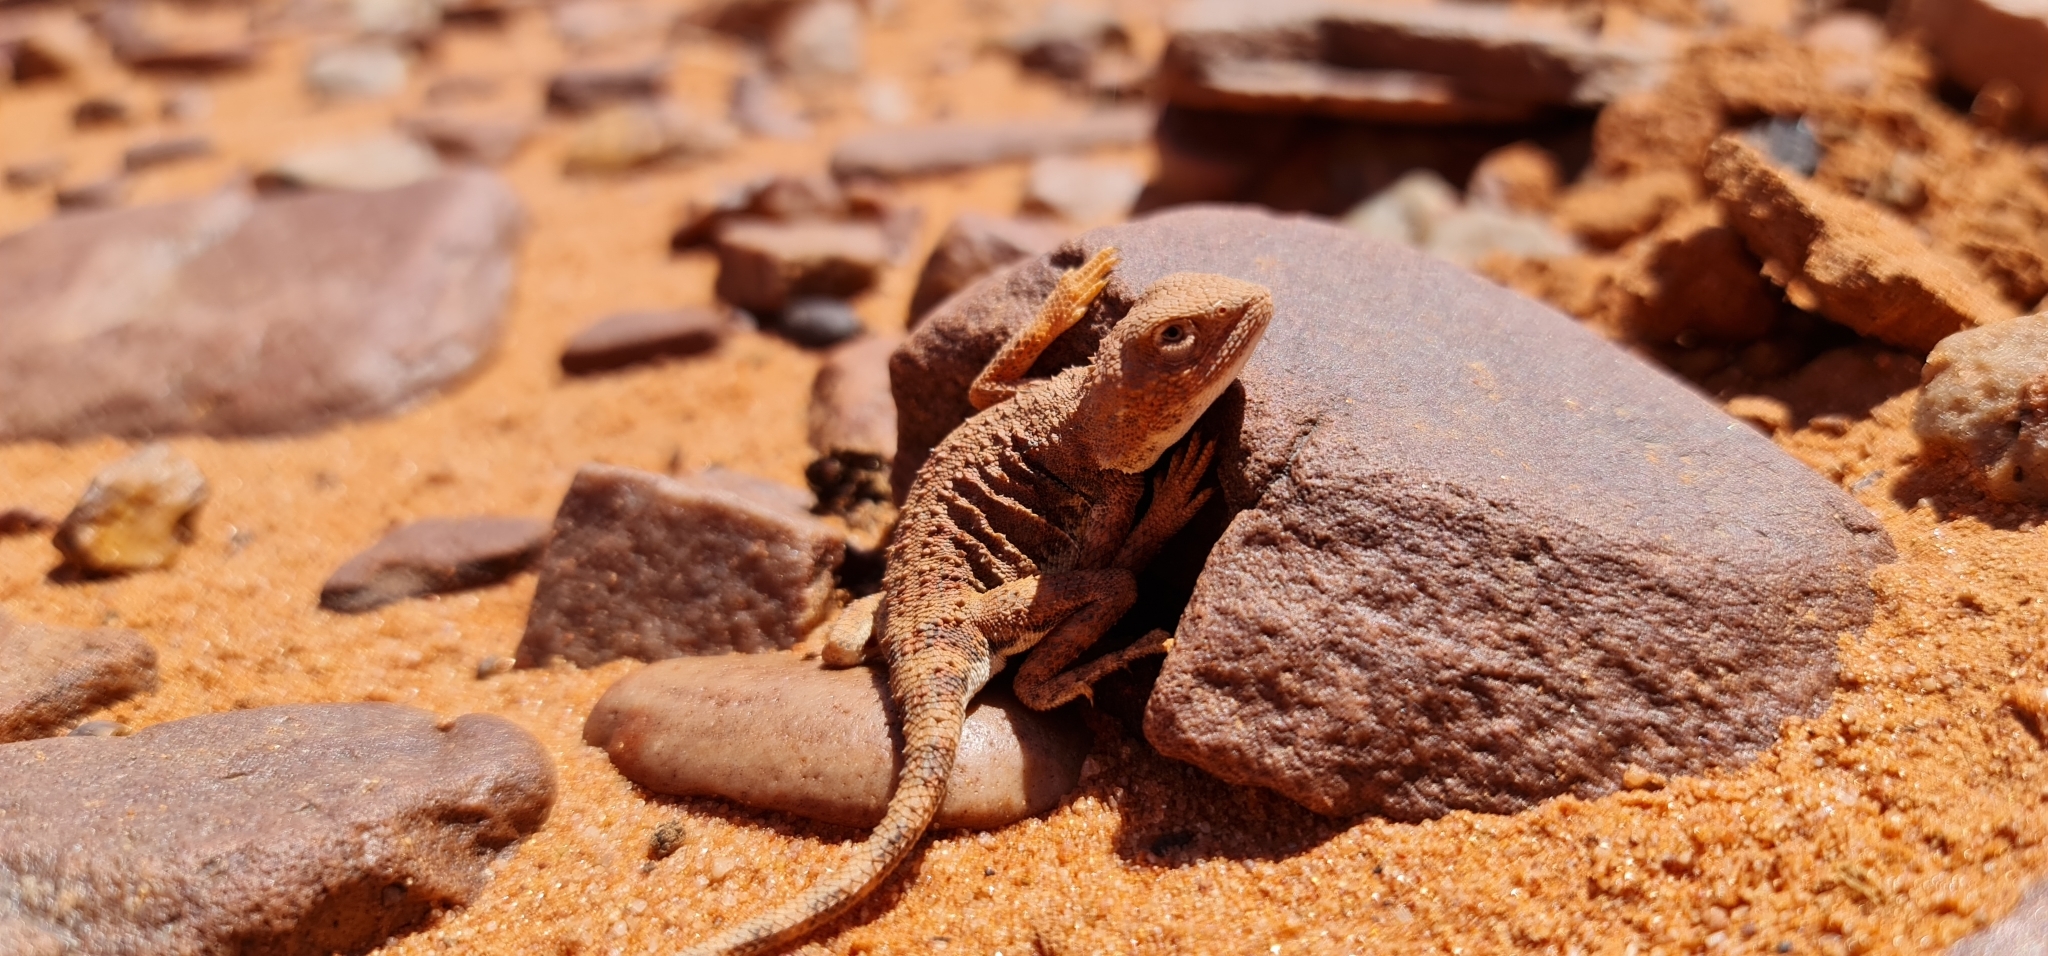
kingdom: Animalia
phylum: Chordata
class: Squamata
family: Agamidae
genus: Tympanocryptis
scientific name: Tympanocryptis intima
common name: Gibber earless dragon
